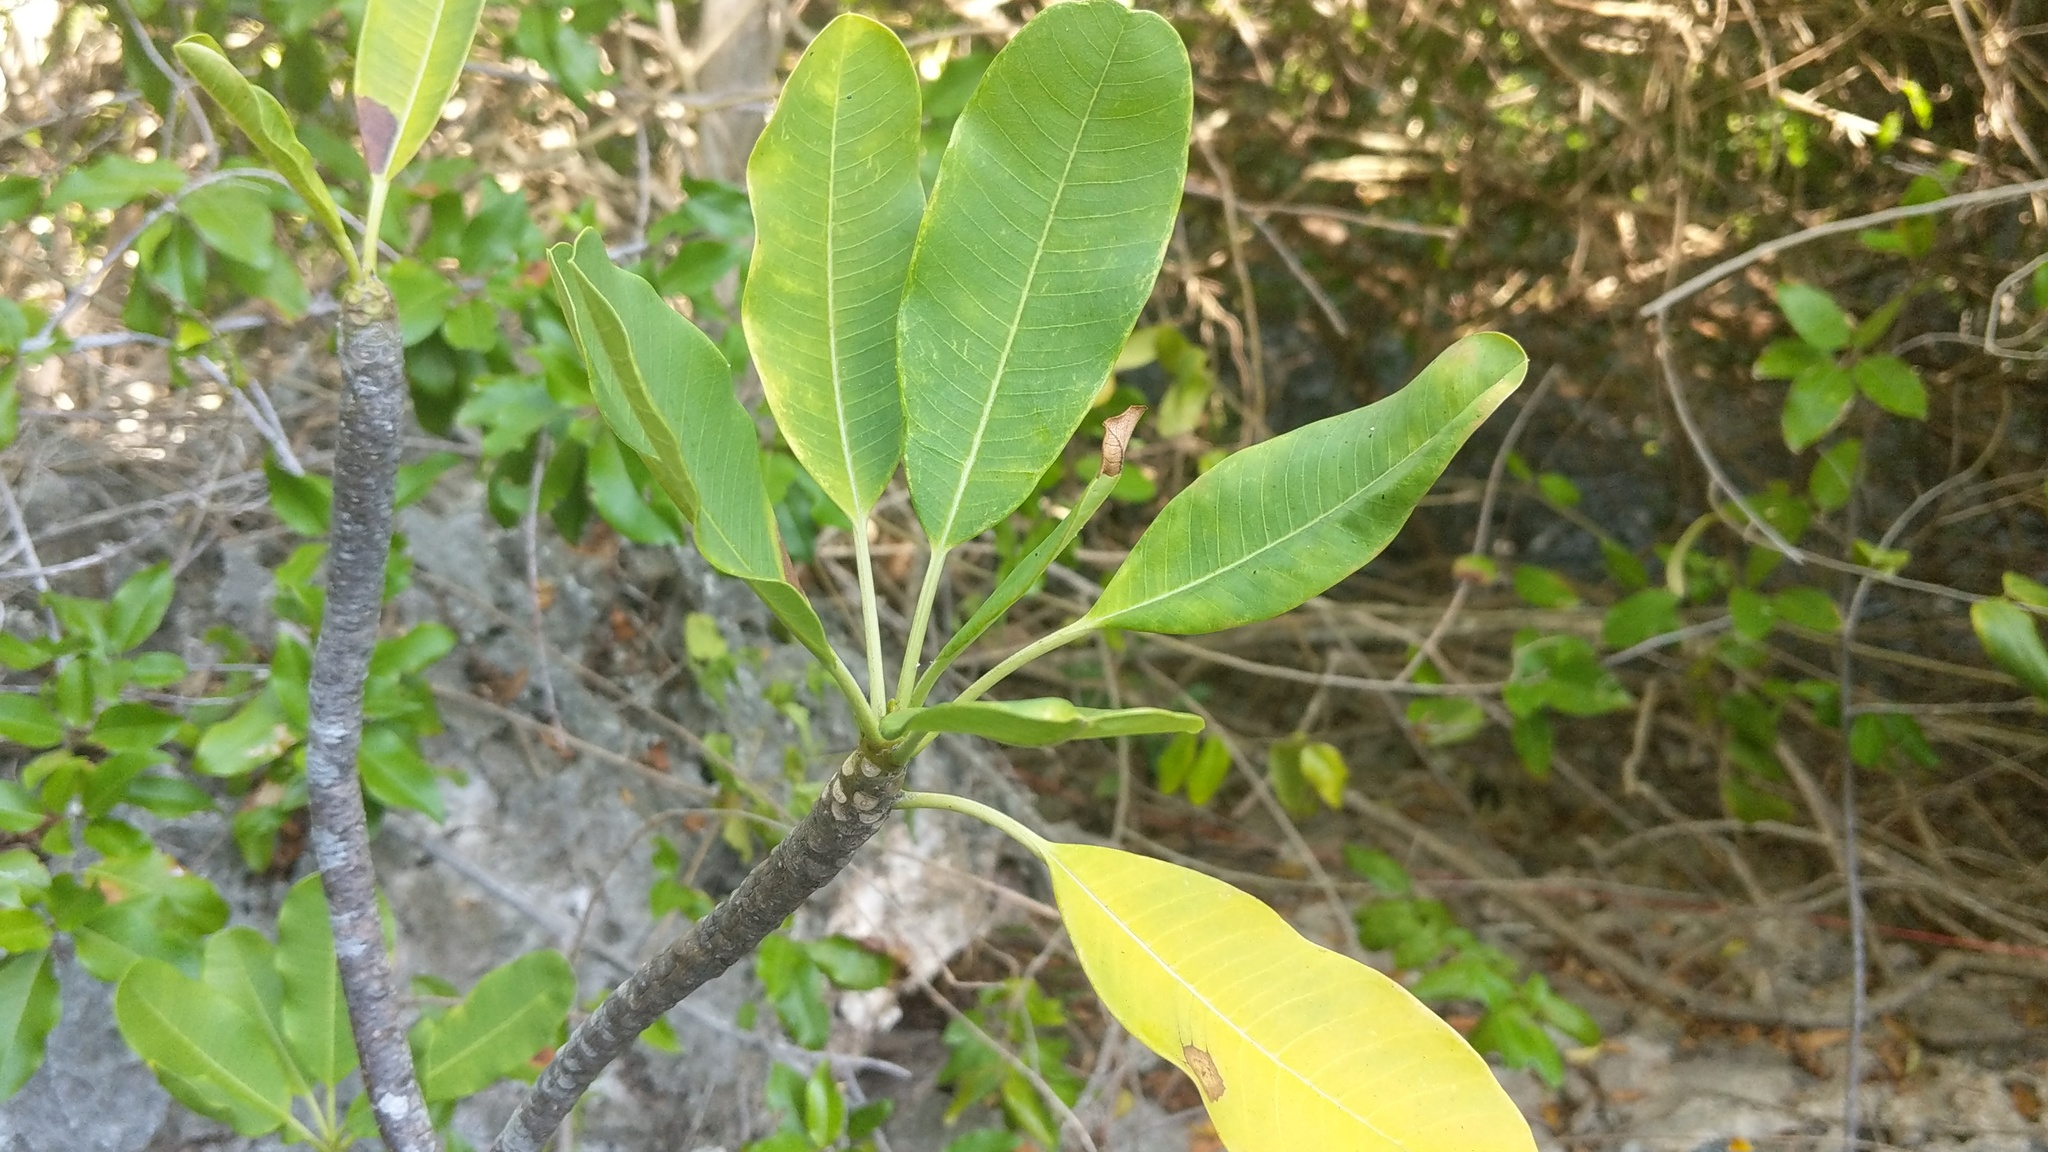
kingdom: Plantae
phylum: Tracheophyta
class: Magnoliopsida
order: Gentianales
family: Apocynaceae
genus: Plumeria
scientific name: Plumeria obtusa
